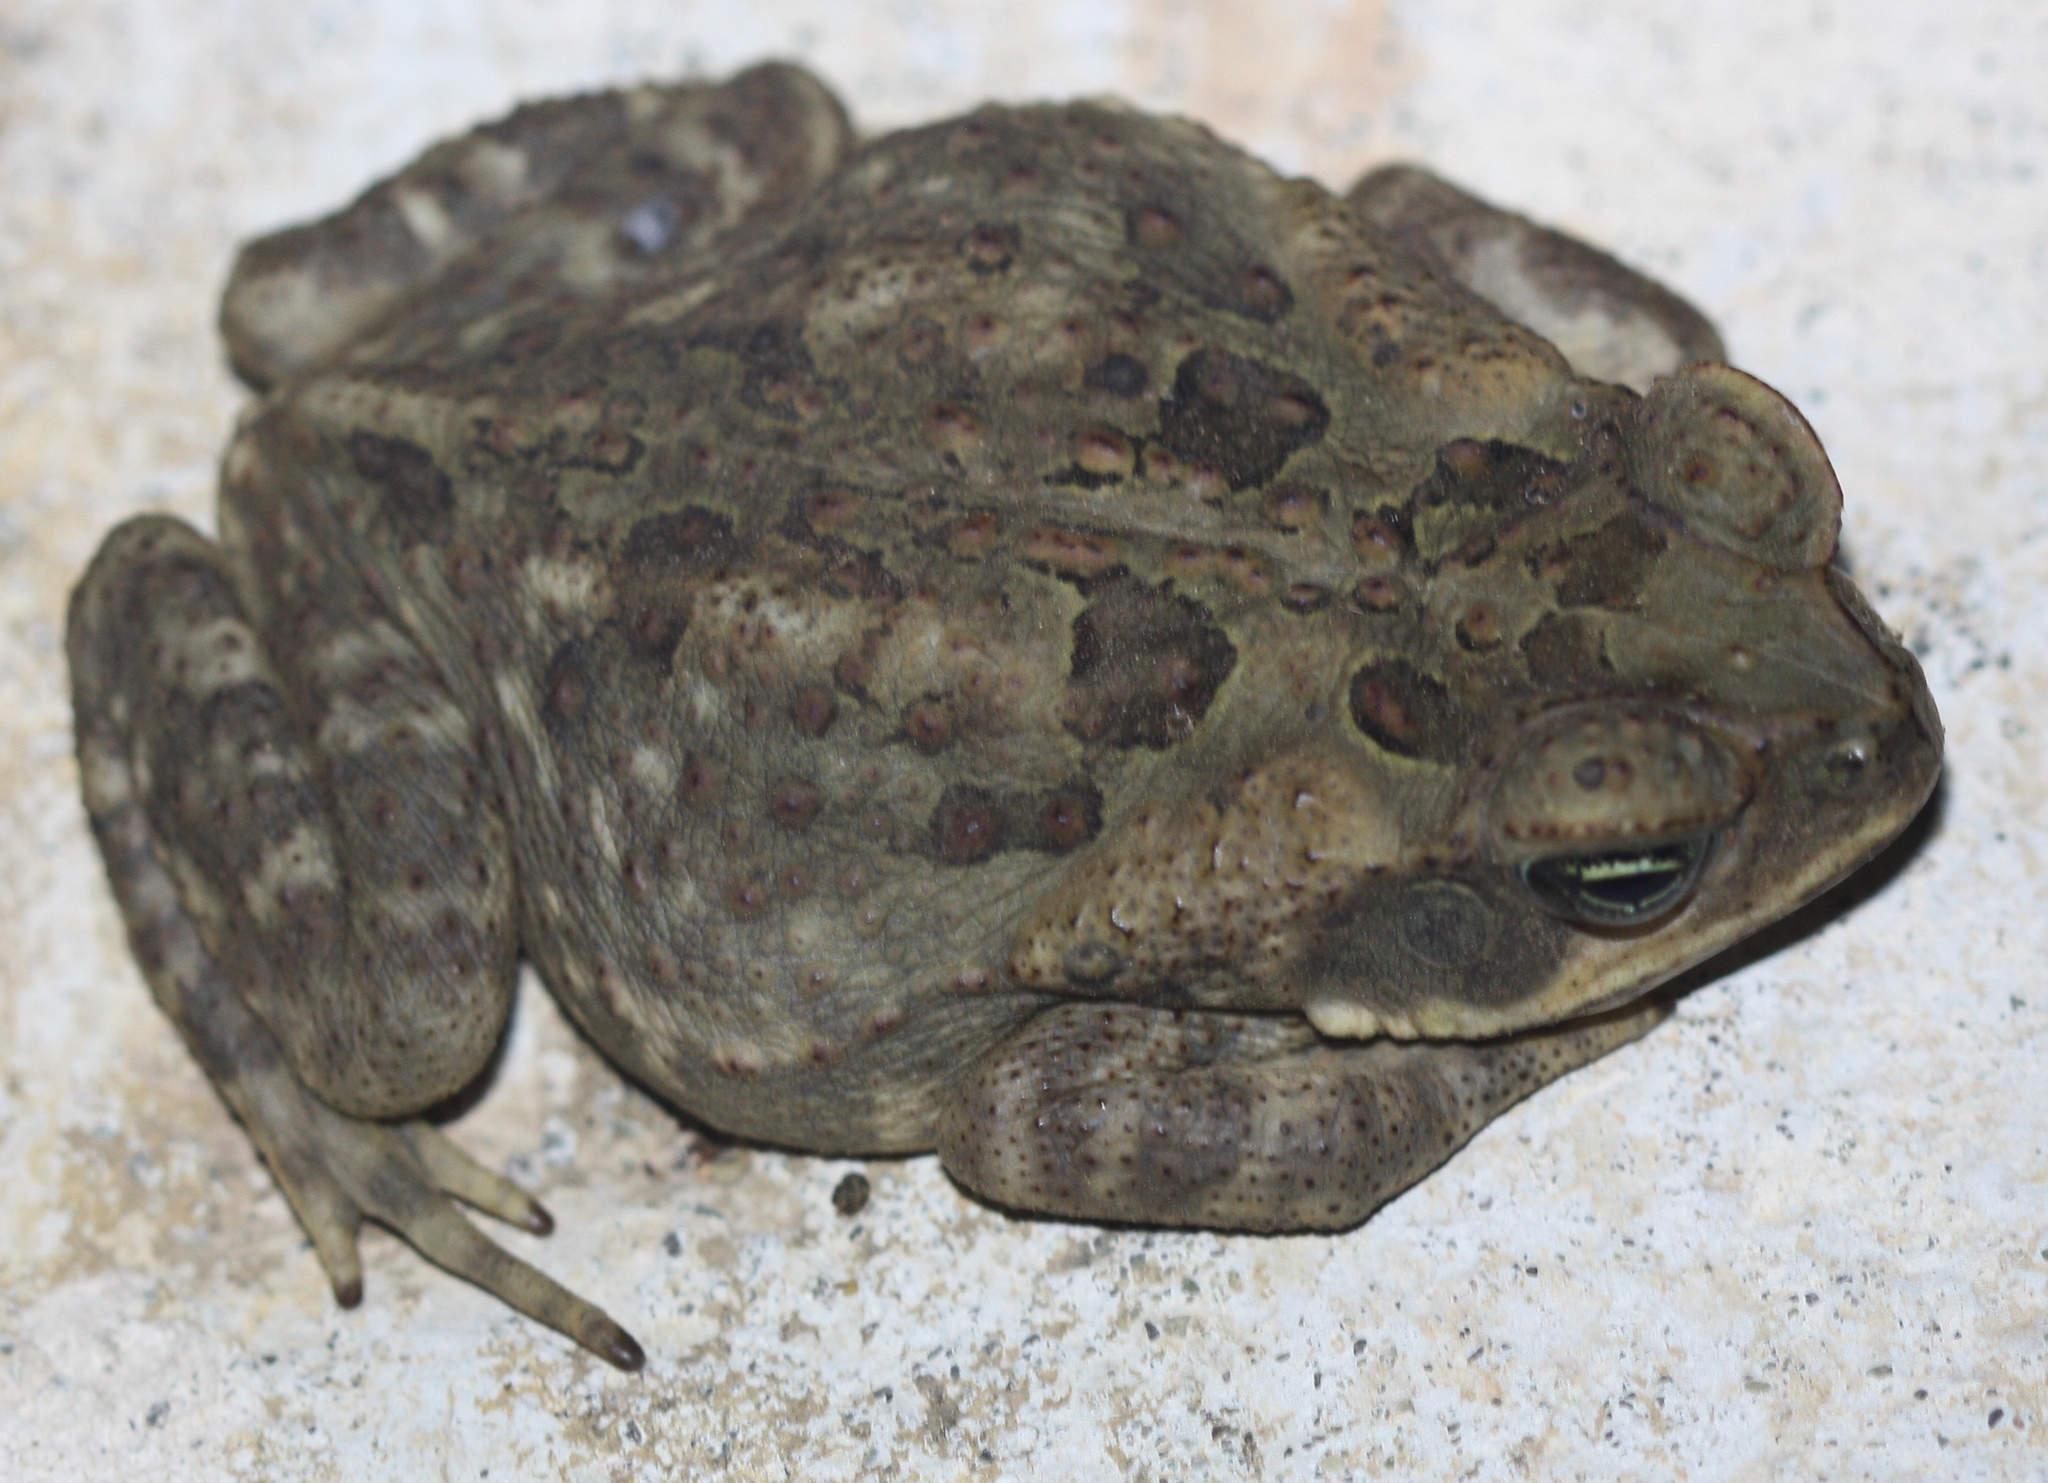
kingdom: Animalia
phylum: Chordata
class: Amphibia
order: Anura
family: Bufonidae
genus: Rhinella
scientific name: Rhinella horribilis
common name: Mesoamerican cane toad
